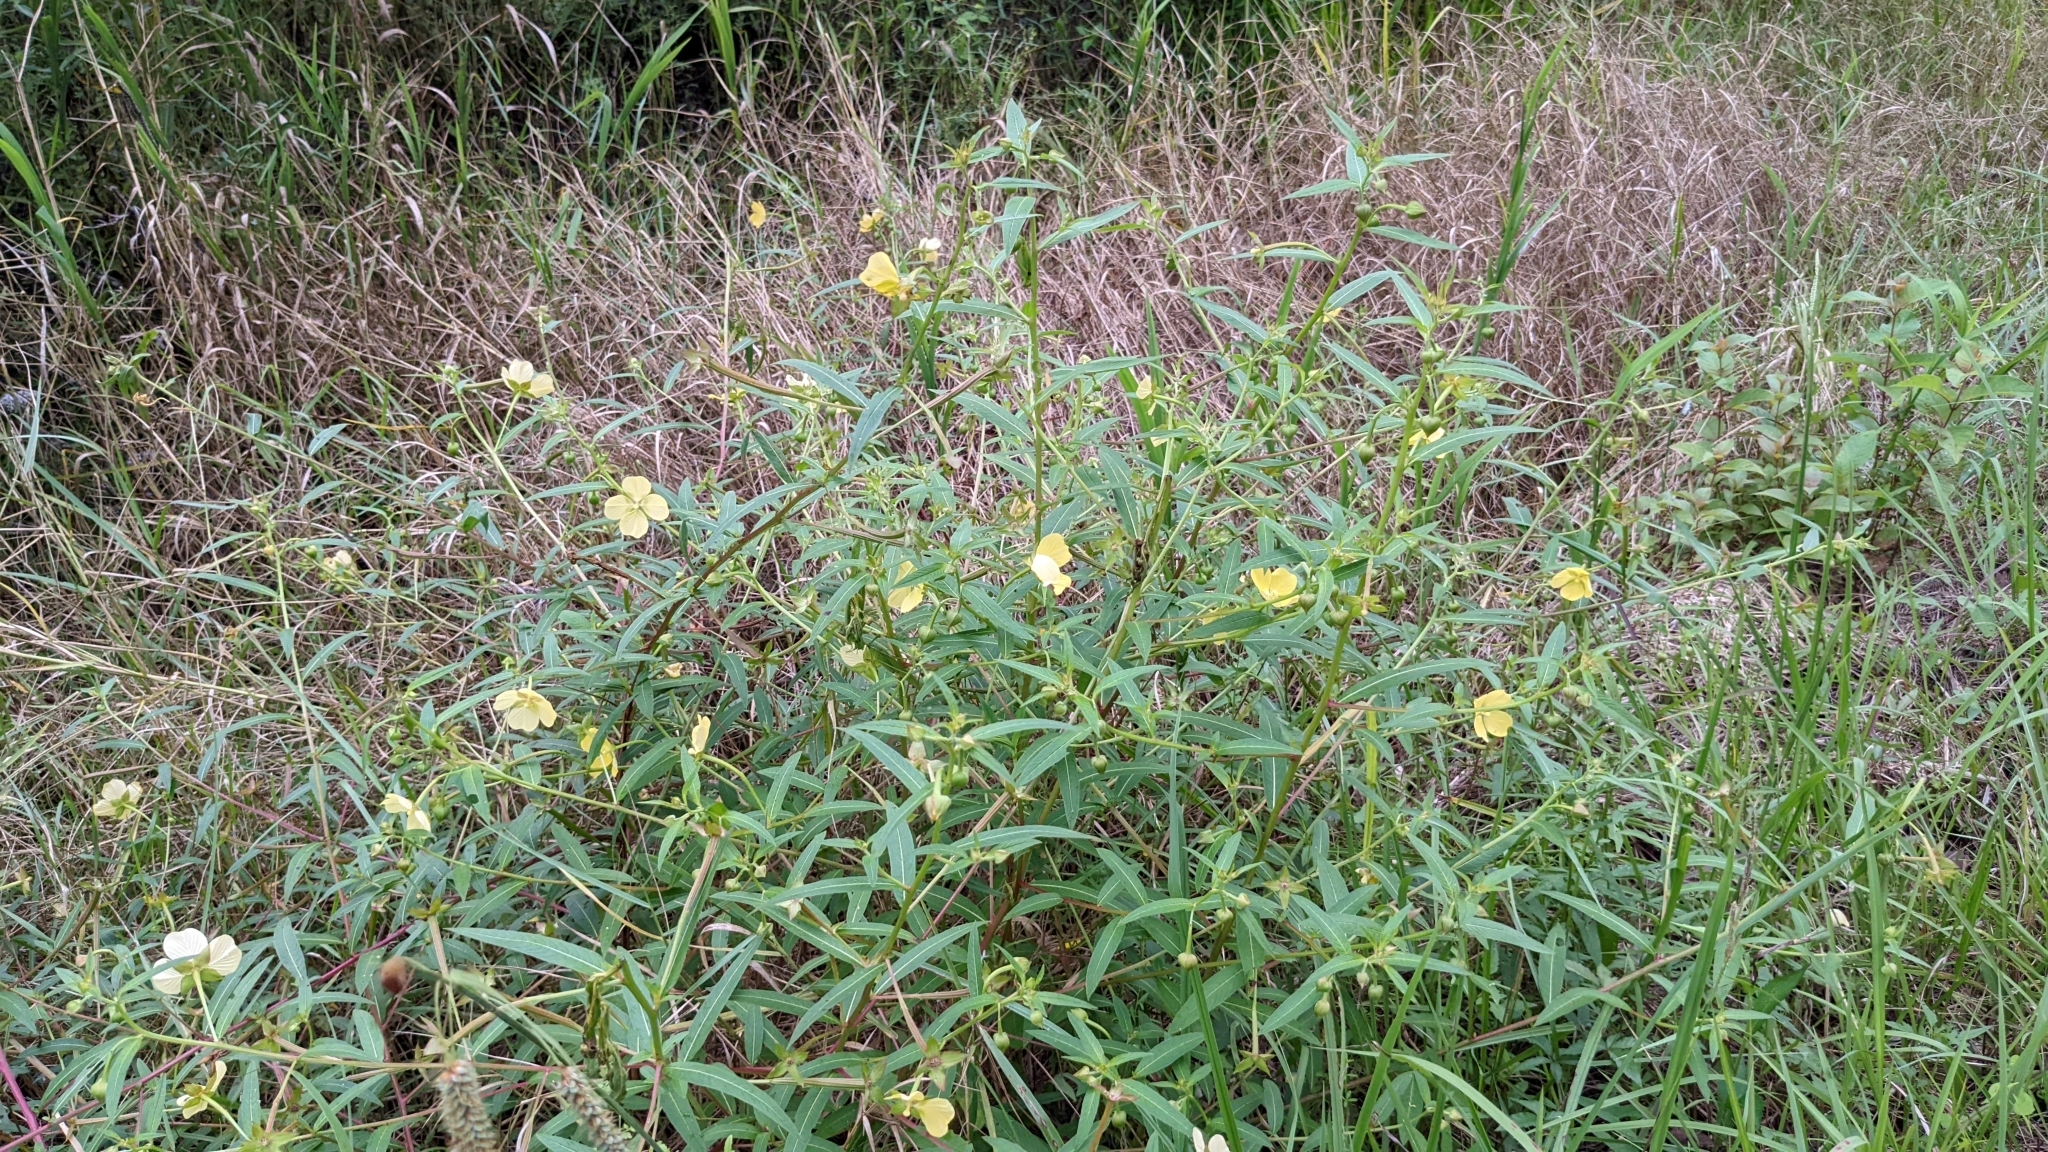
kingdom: Plantae
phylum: Tracheophyta
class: Magnoliopsida
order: Myrtales
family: Onagraceae
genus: Ludwigia
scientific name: Ludwigia octovalvis
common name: Water-primrose
